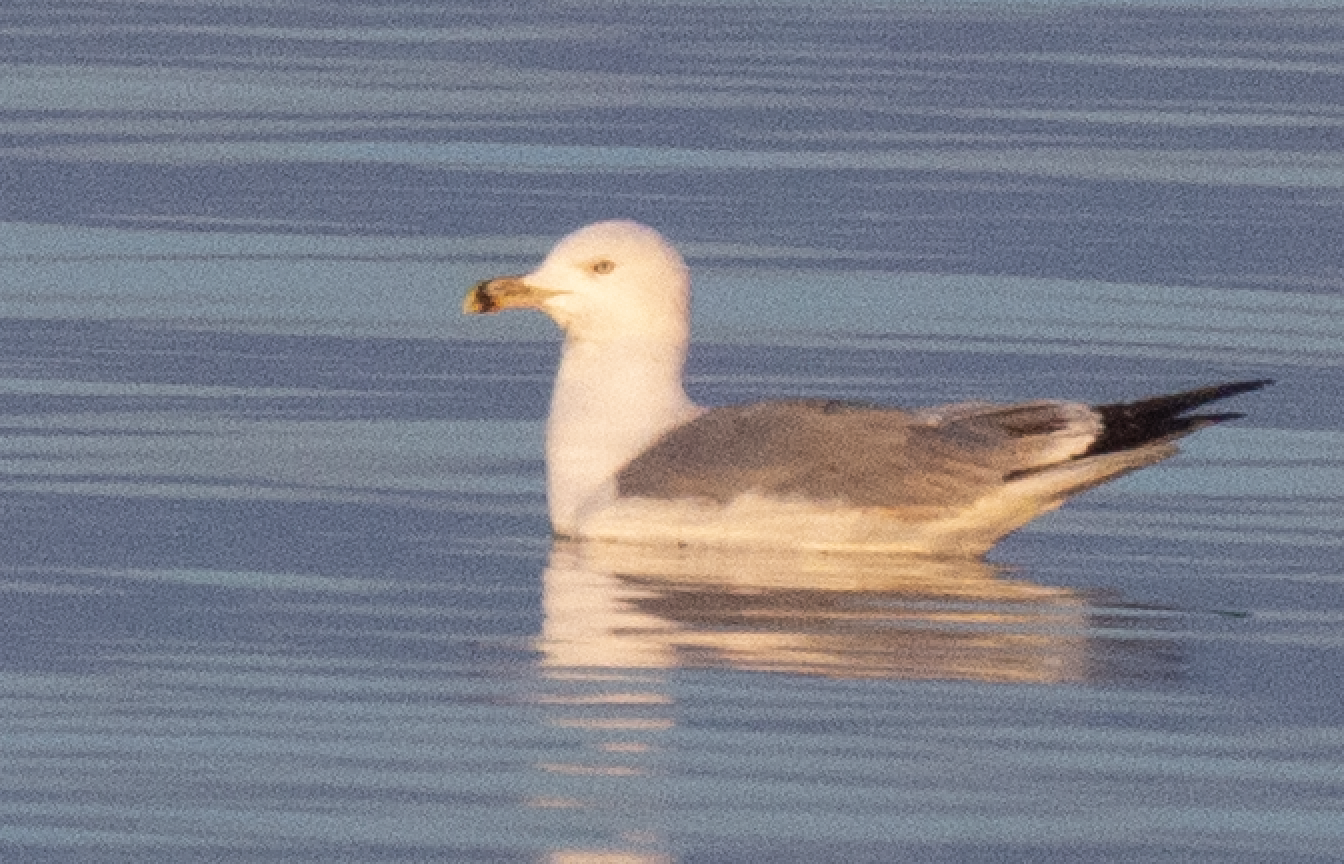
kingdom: Animalia
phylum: Chordata
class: Aves
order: Charadriiformes
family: Laridae
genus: Larus
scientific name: Larus michahellis
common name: Yellow-legged gull
